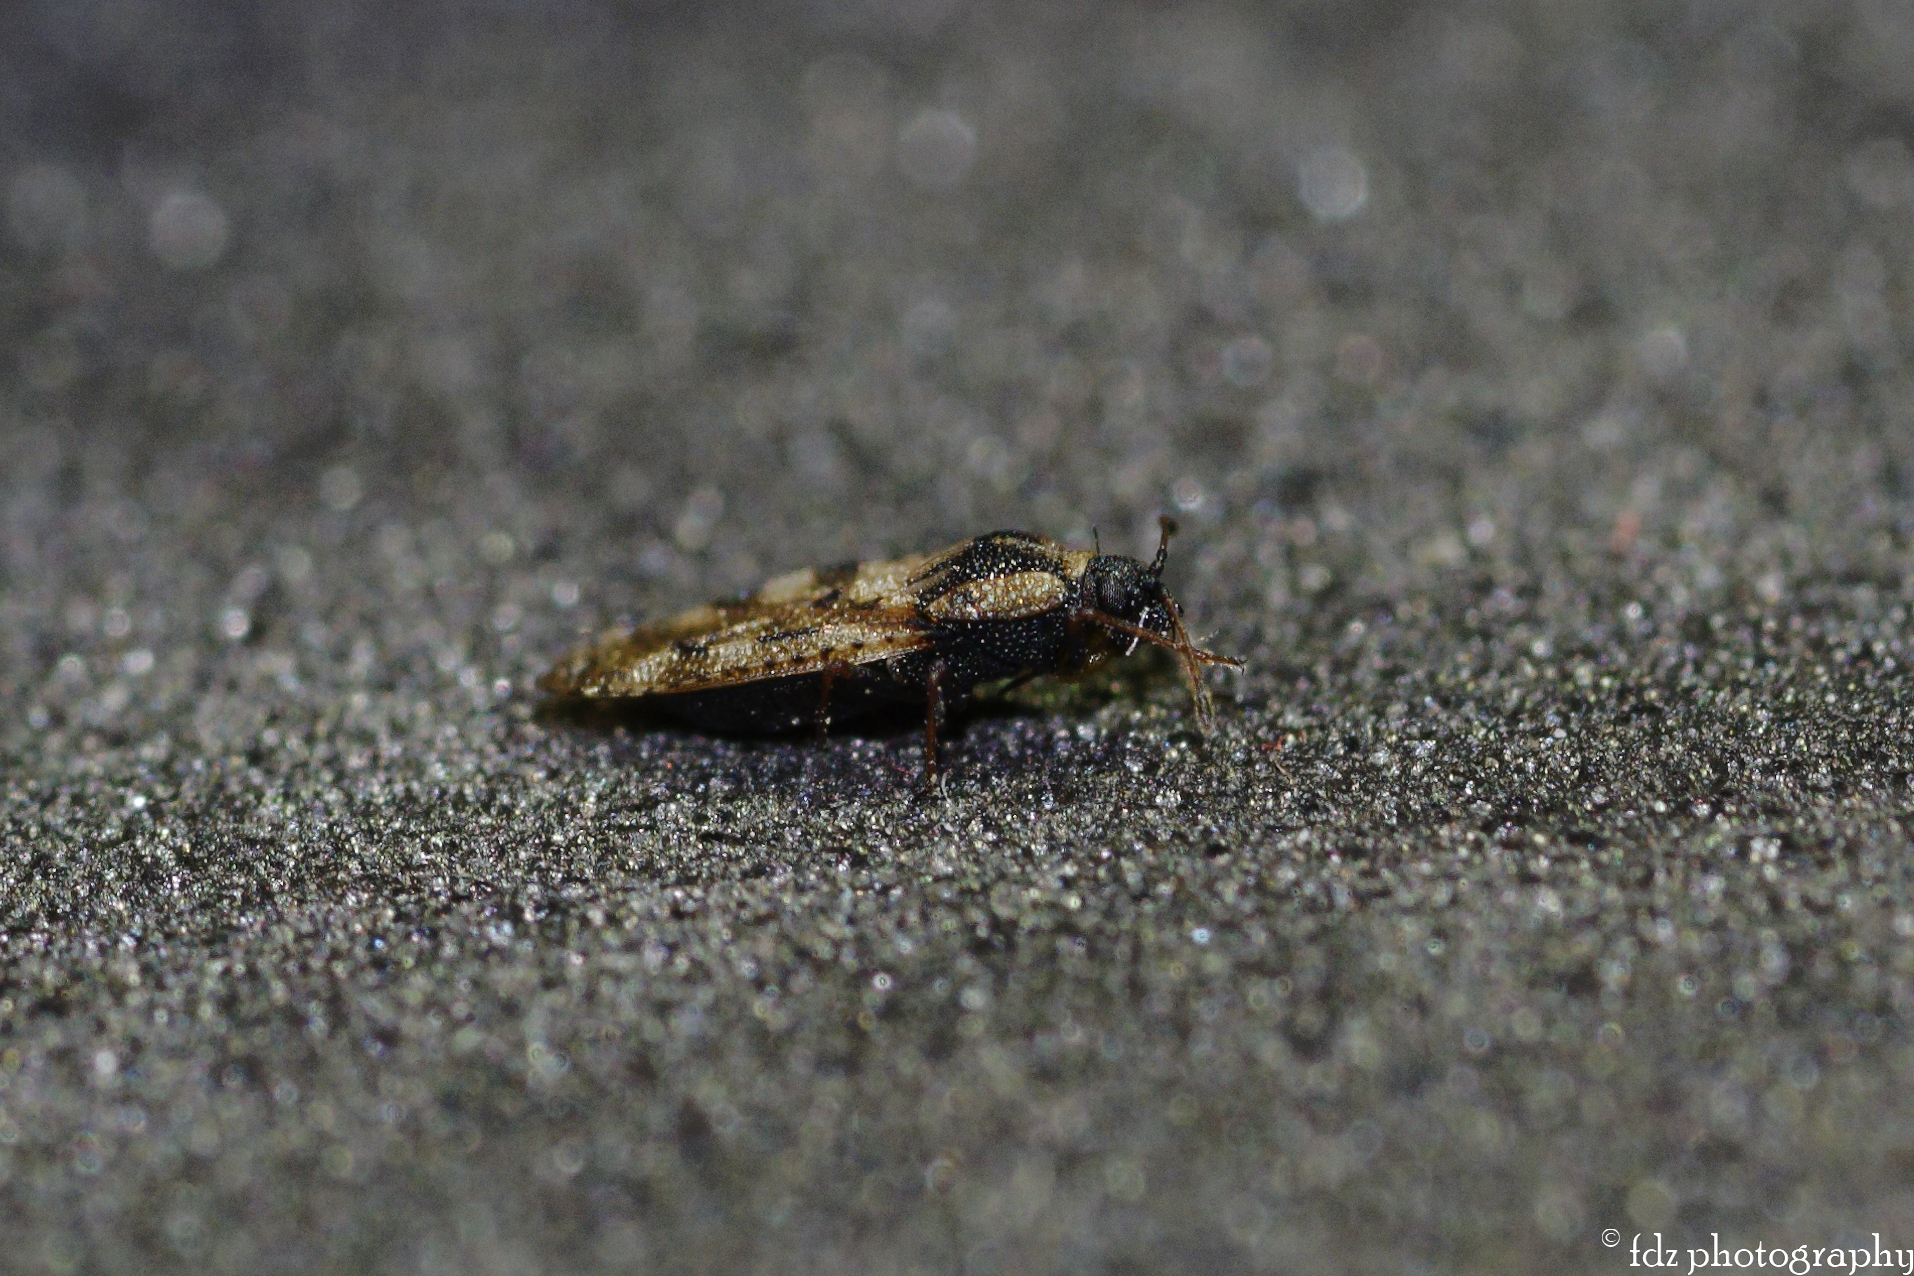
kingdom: Animalia
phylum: Arthropoda
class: Insecta
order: Hemiptera
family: Tingidae
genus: Dictyla
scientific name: Dictyla echii
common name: Lace bug
